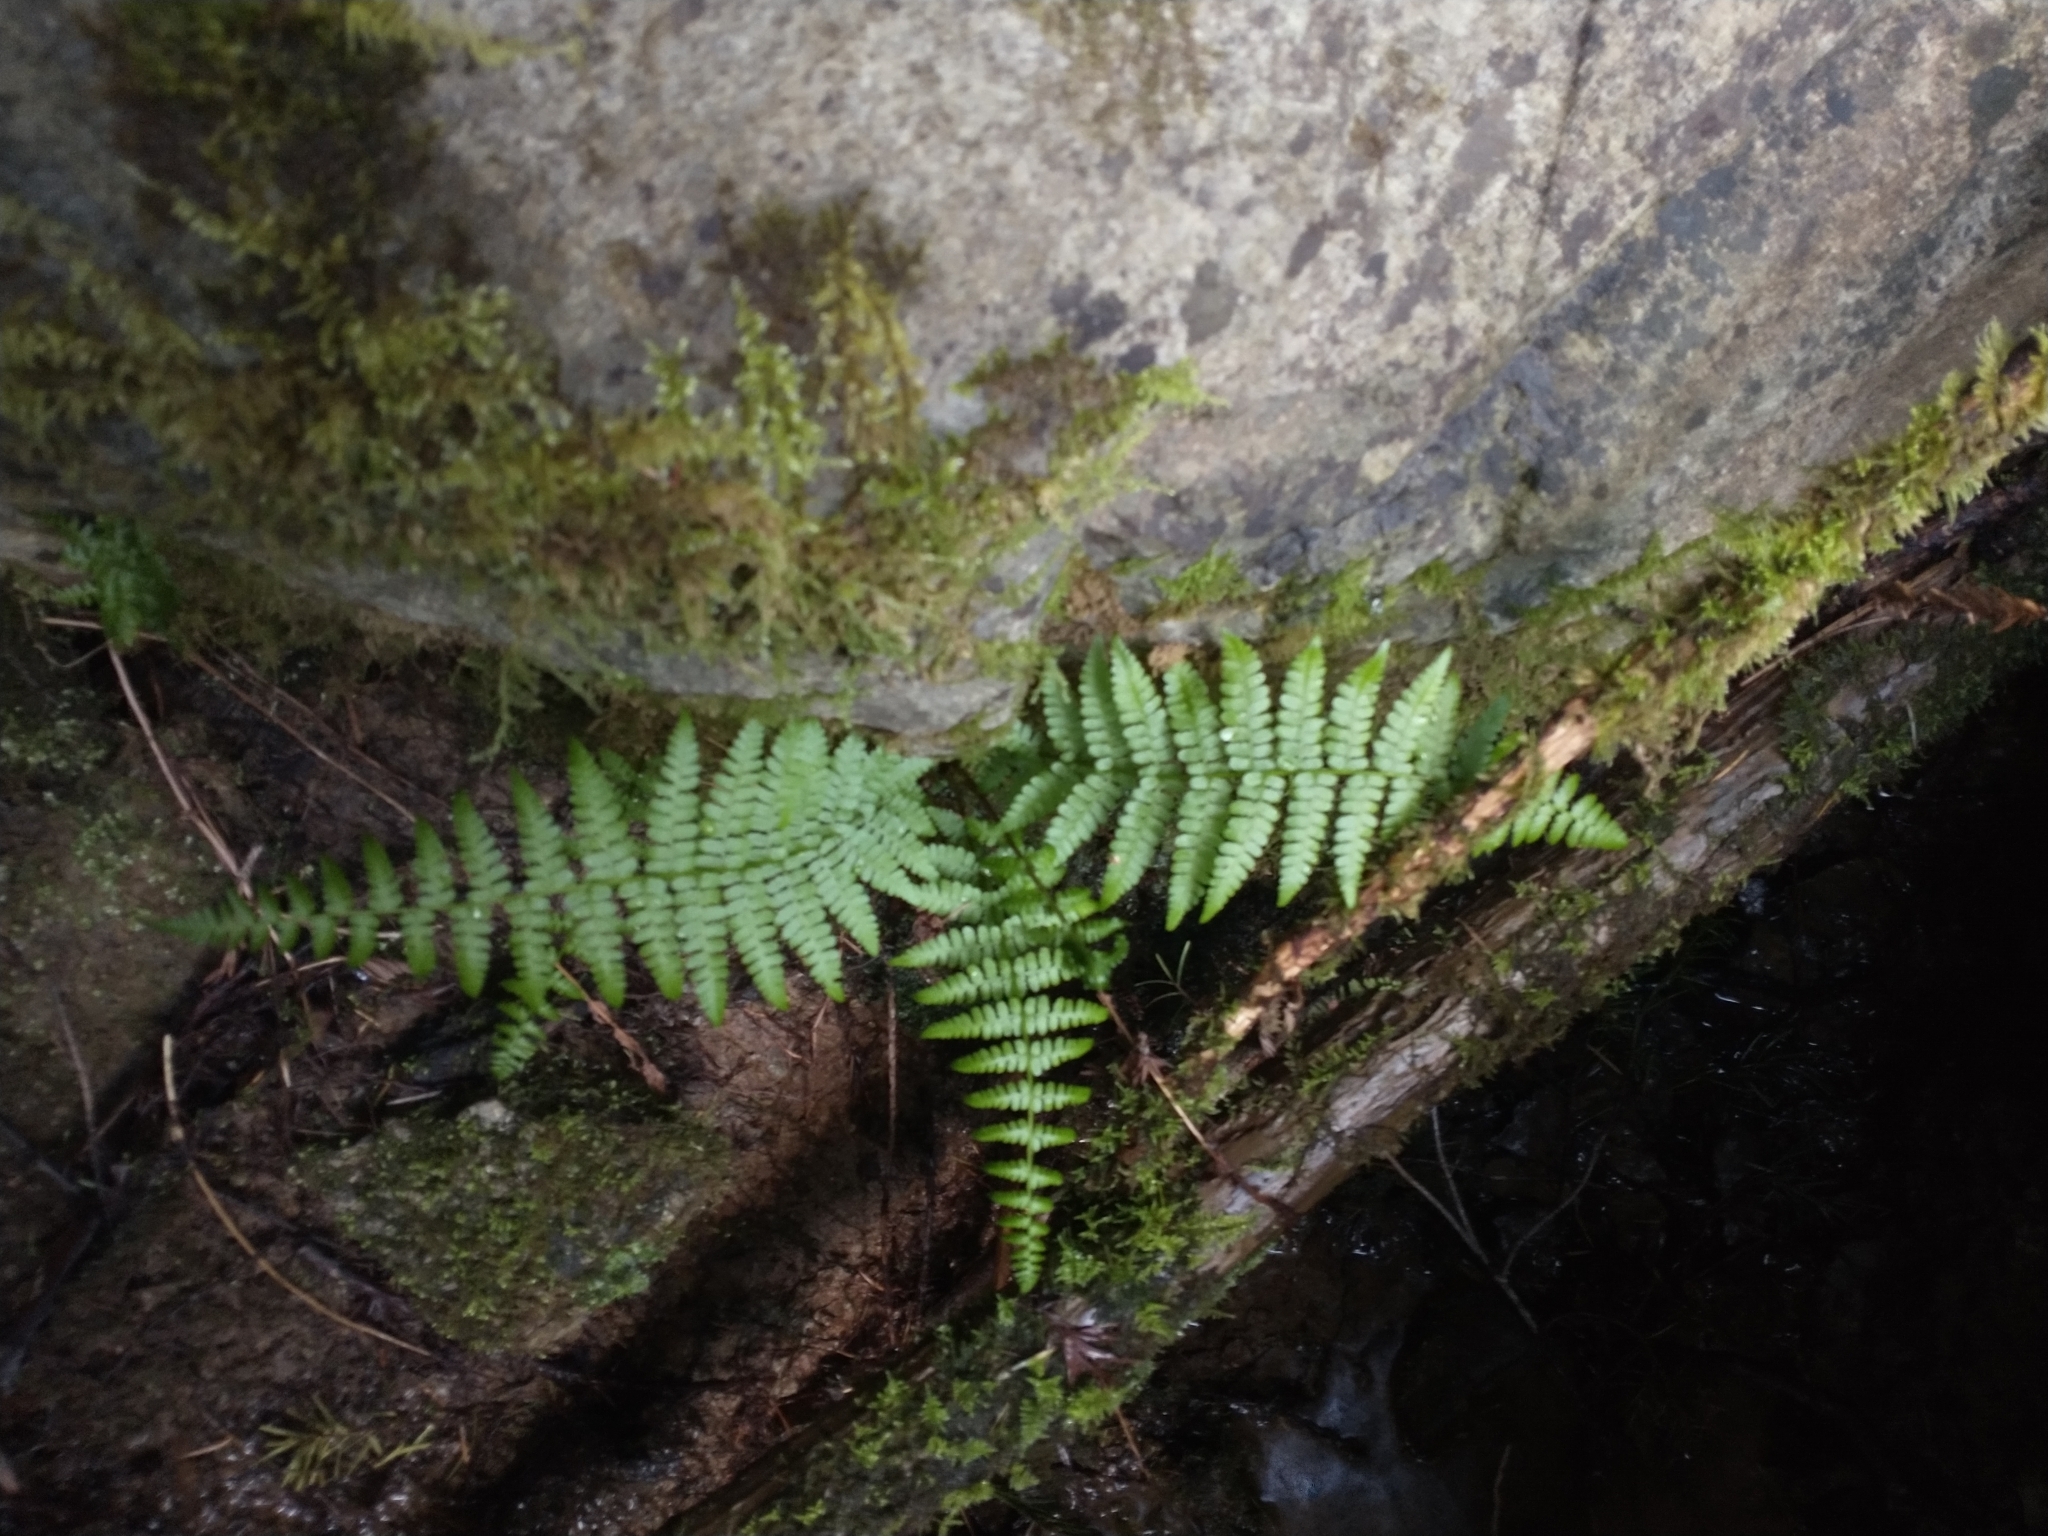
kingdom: Plantae
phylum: Tracheophyta
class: Polypodiopsida
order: Polypodiales
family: Athyriaceae
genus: Athyrium
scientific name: Athyrium cyclosorum
